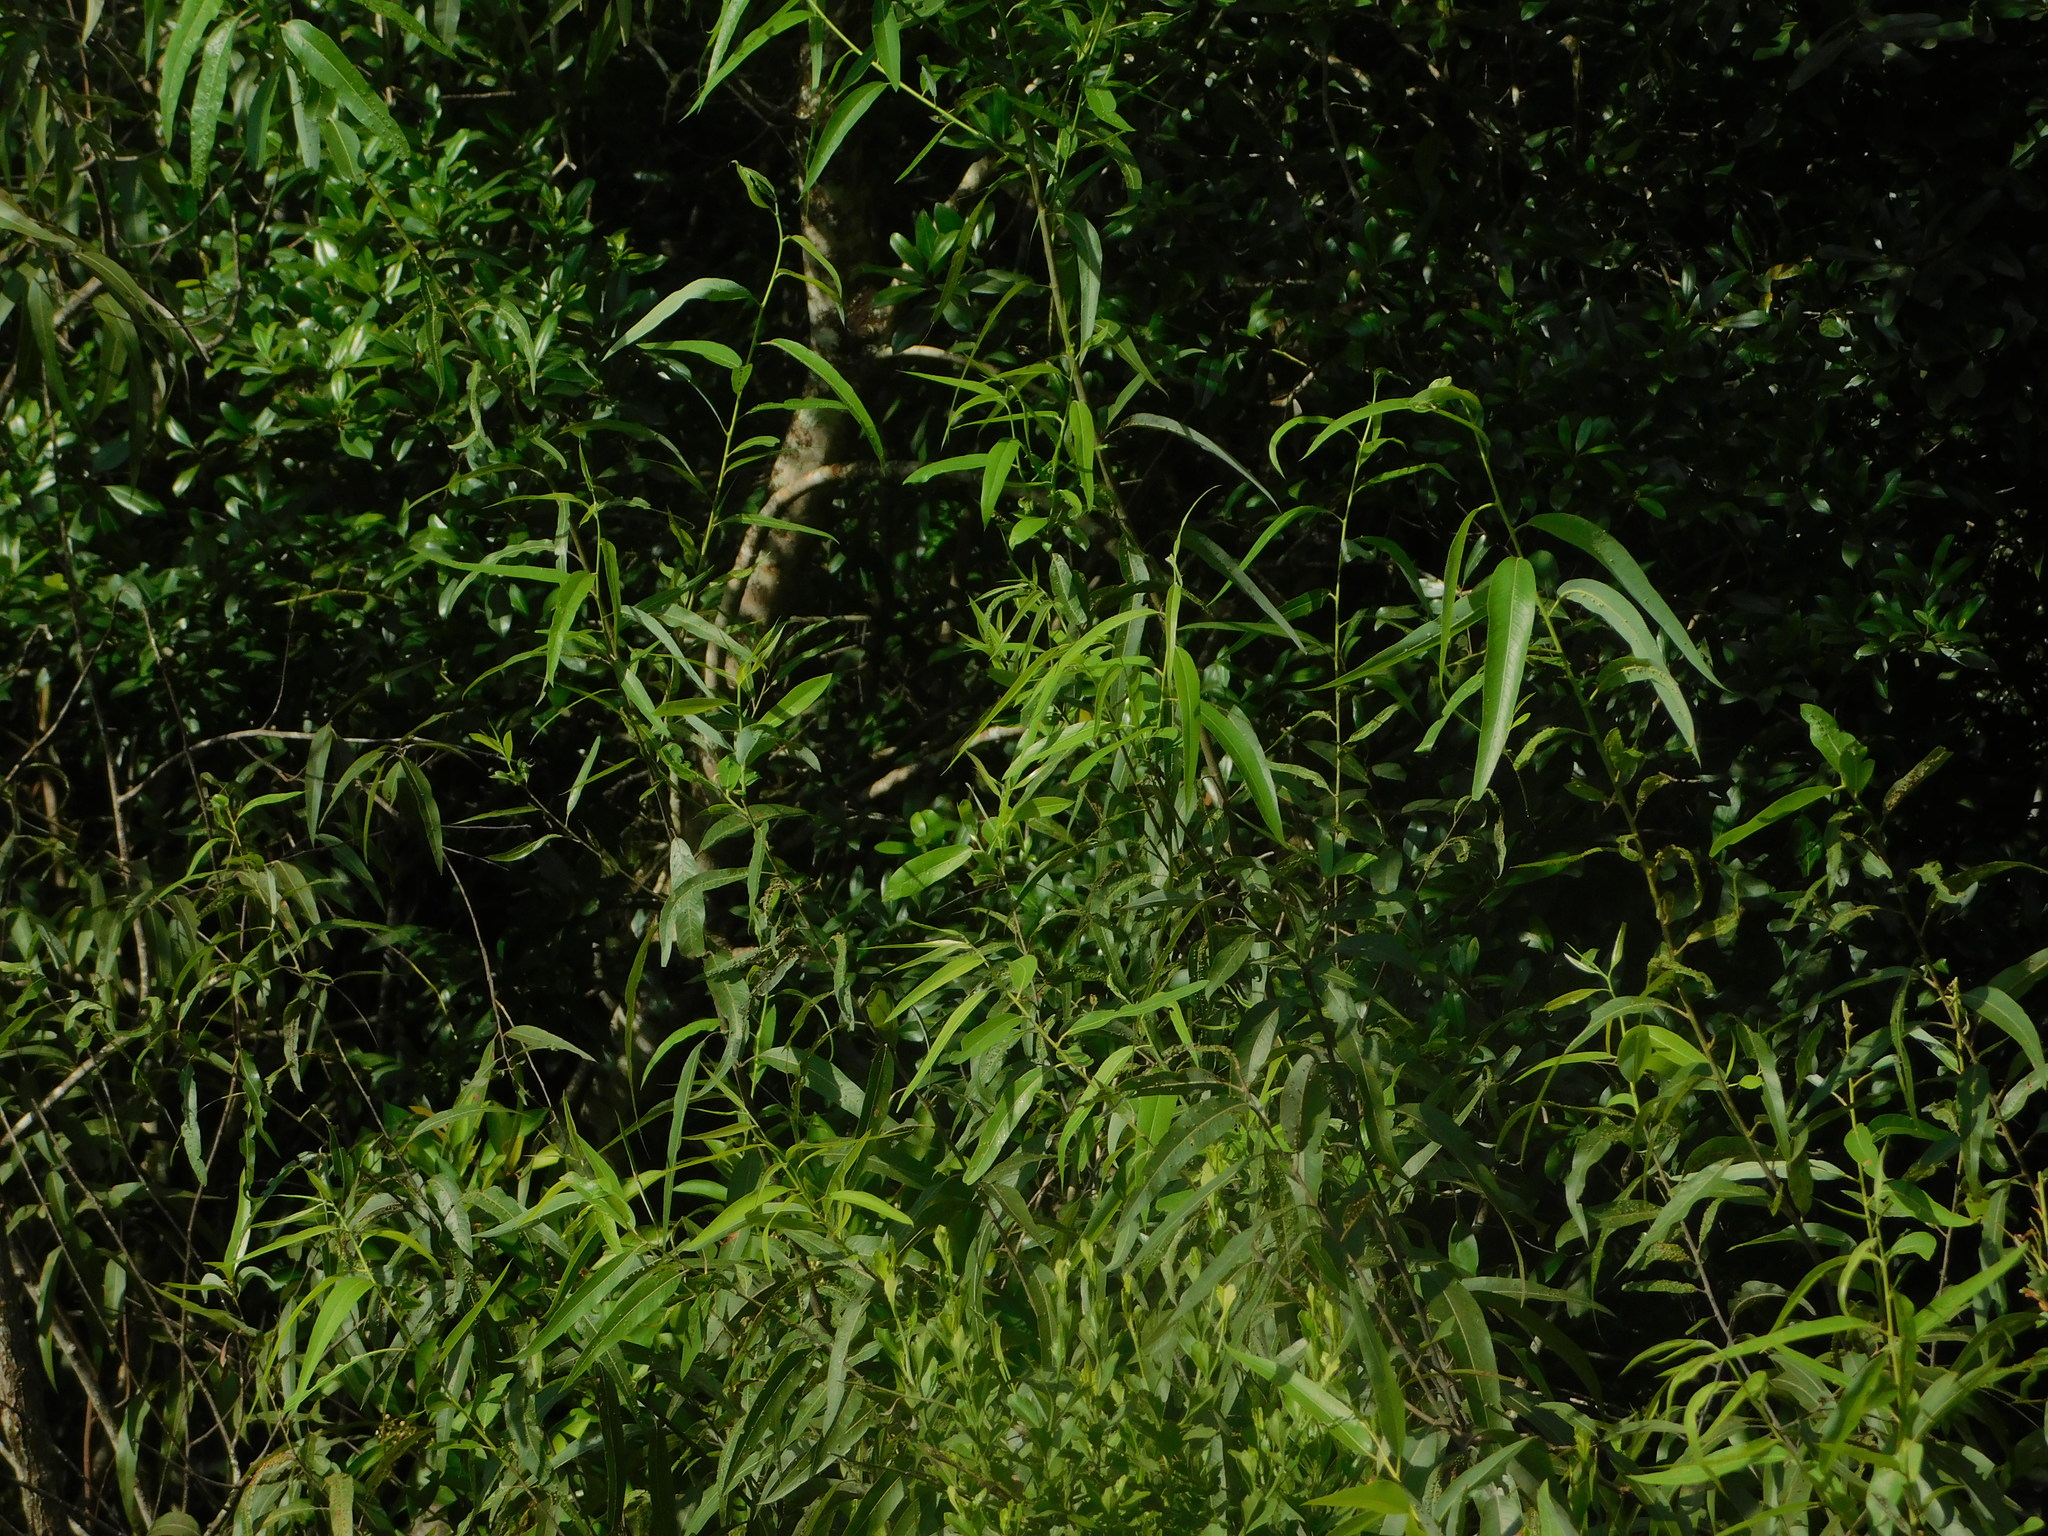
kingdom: Plantae
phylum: Tracheophyta
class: Magnoliopsida
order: Malpighiales
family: Salicaceae
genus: Salix
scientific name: Salix caroliniana
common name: Carolina willow
